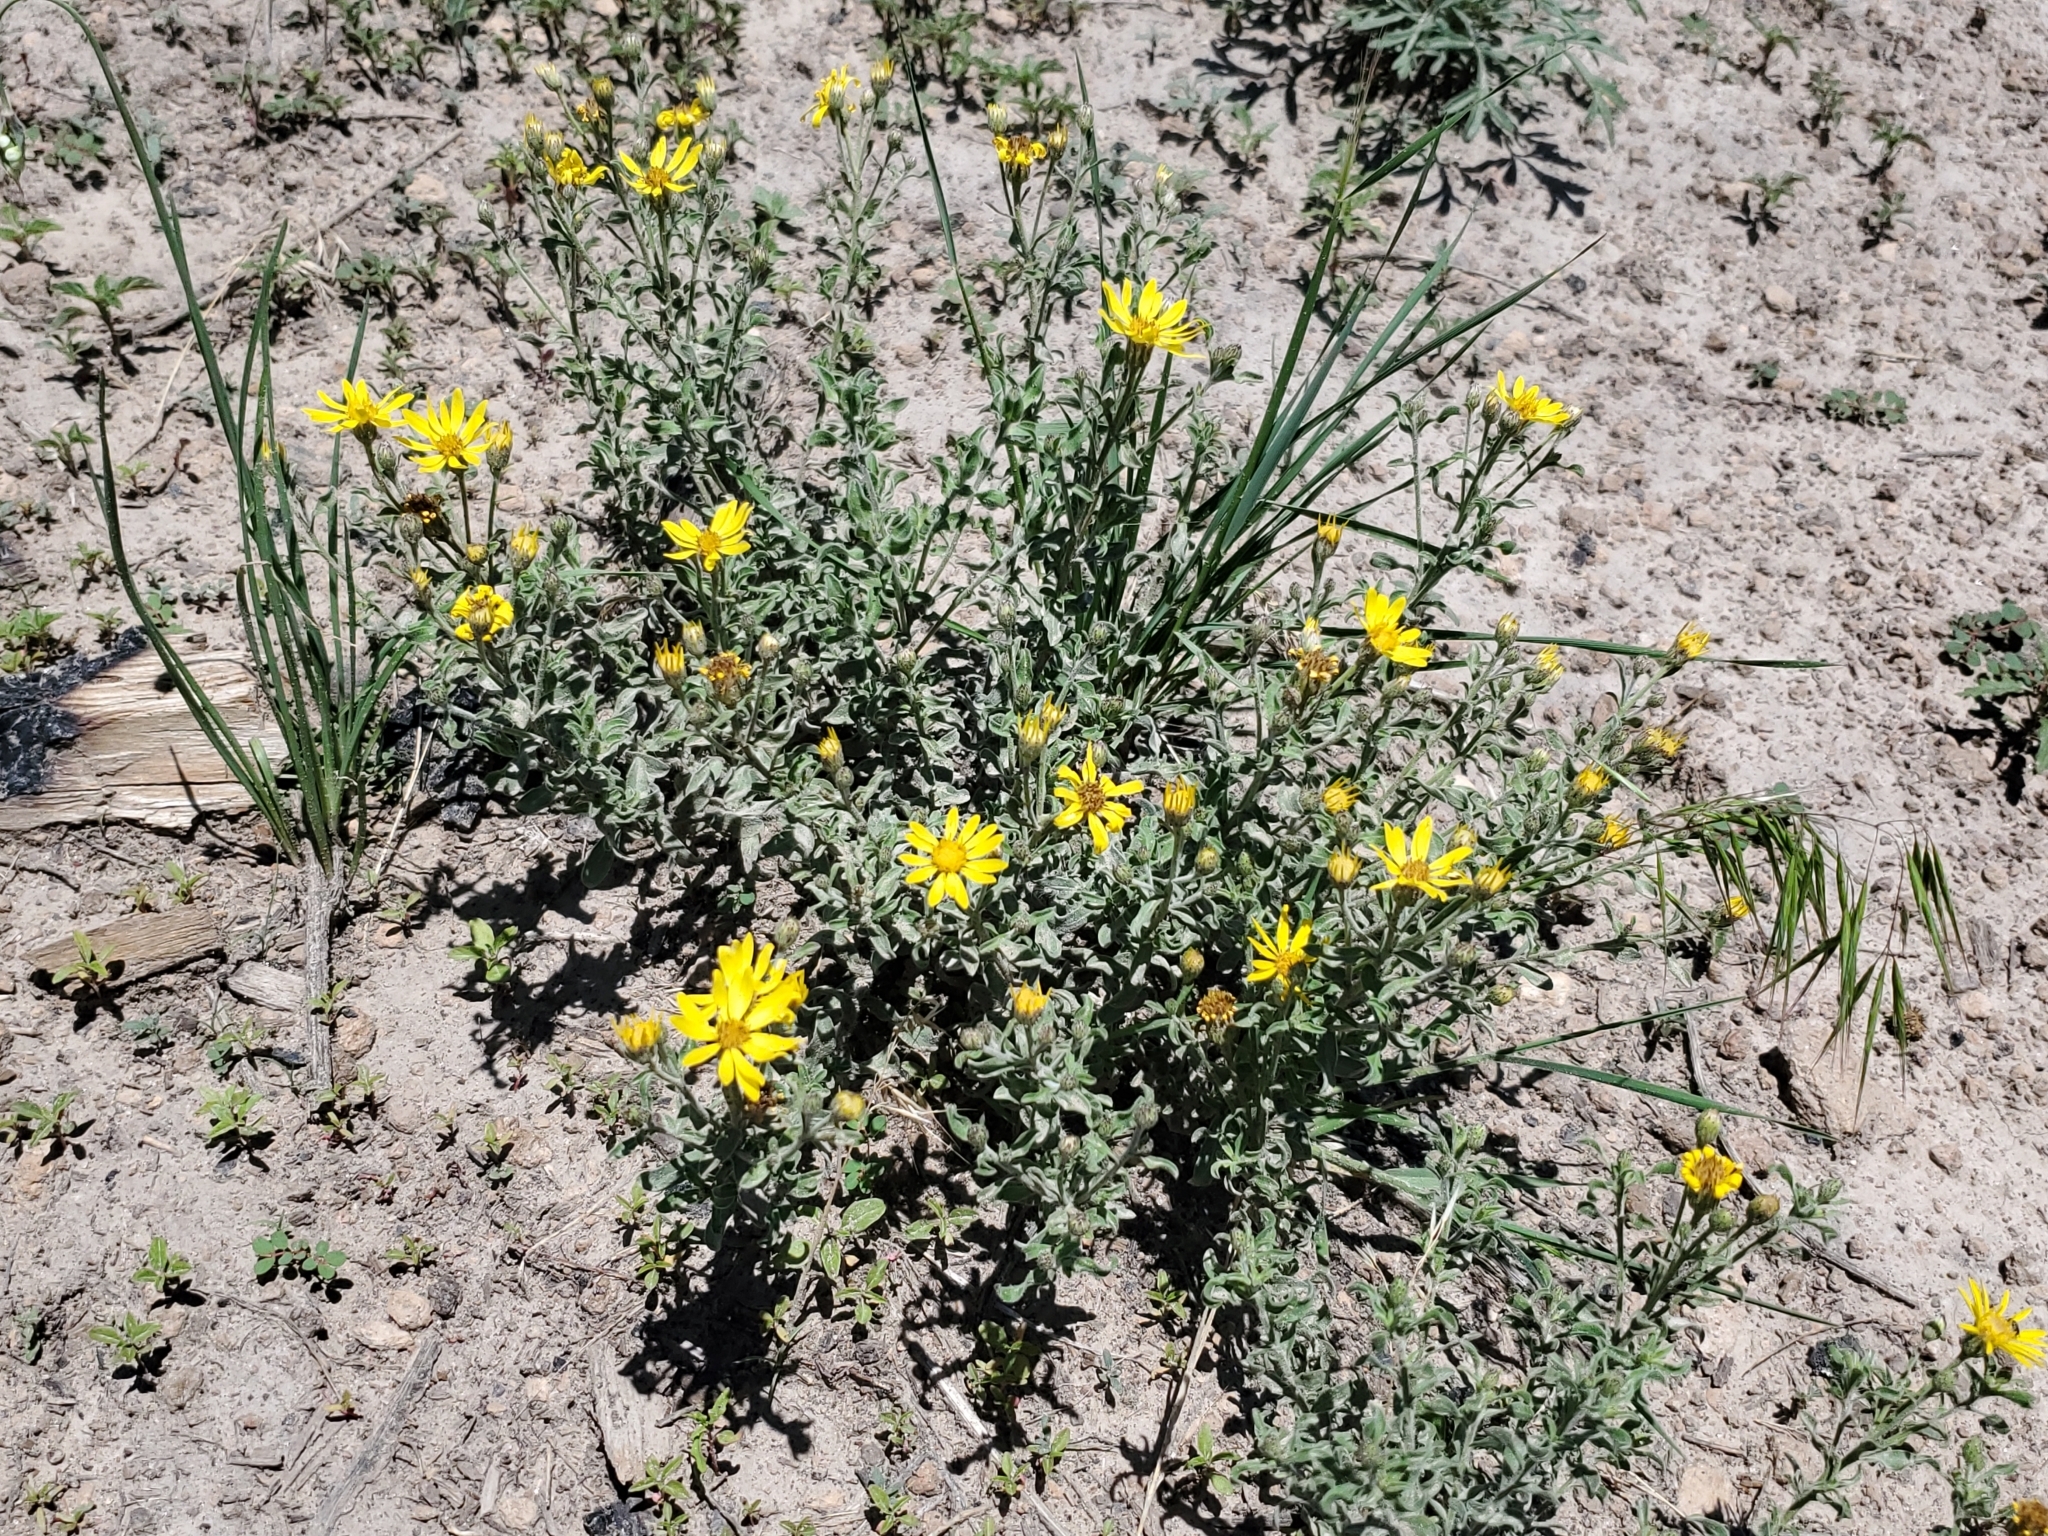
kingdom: Plantae
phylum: Tracheophyta
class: Magnoliopsida
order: Asterales
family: Asteraceae
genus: Heterotheca
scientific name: Heterotheca hirsutissima
